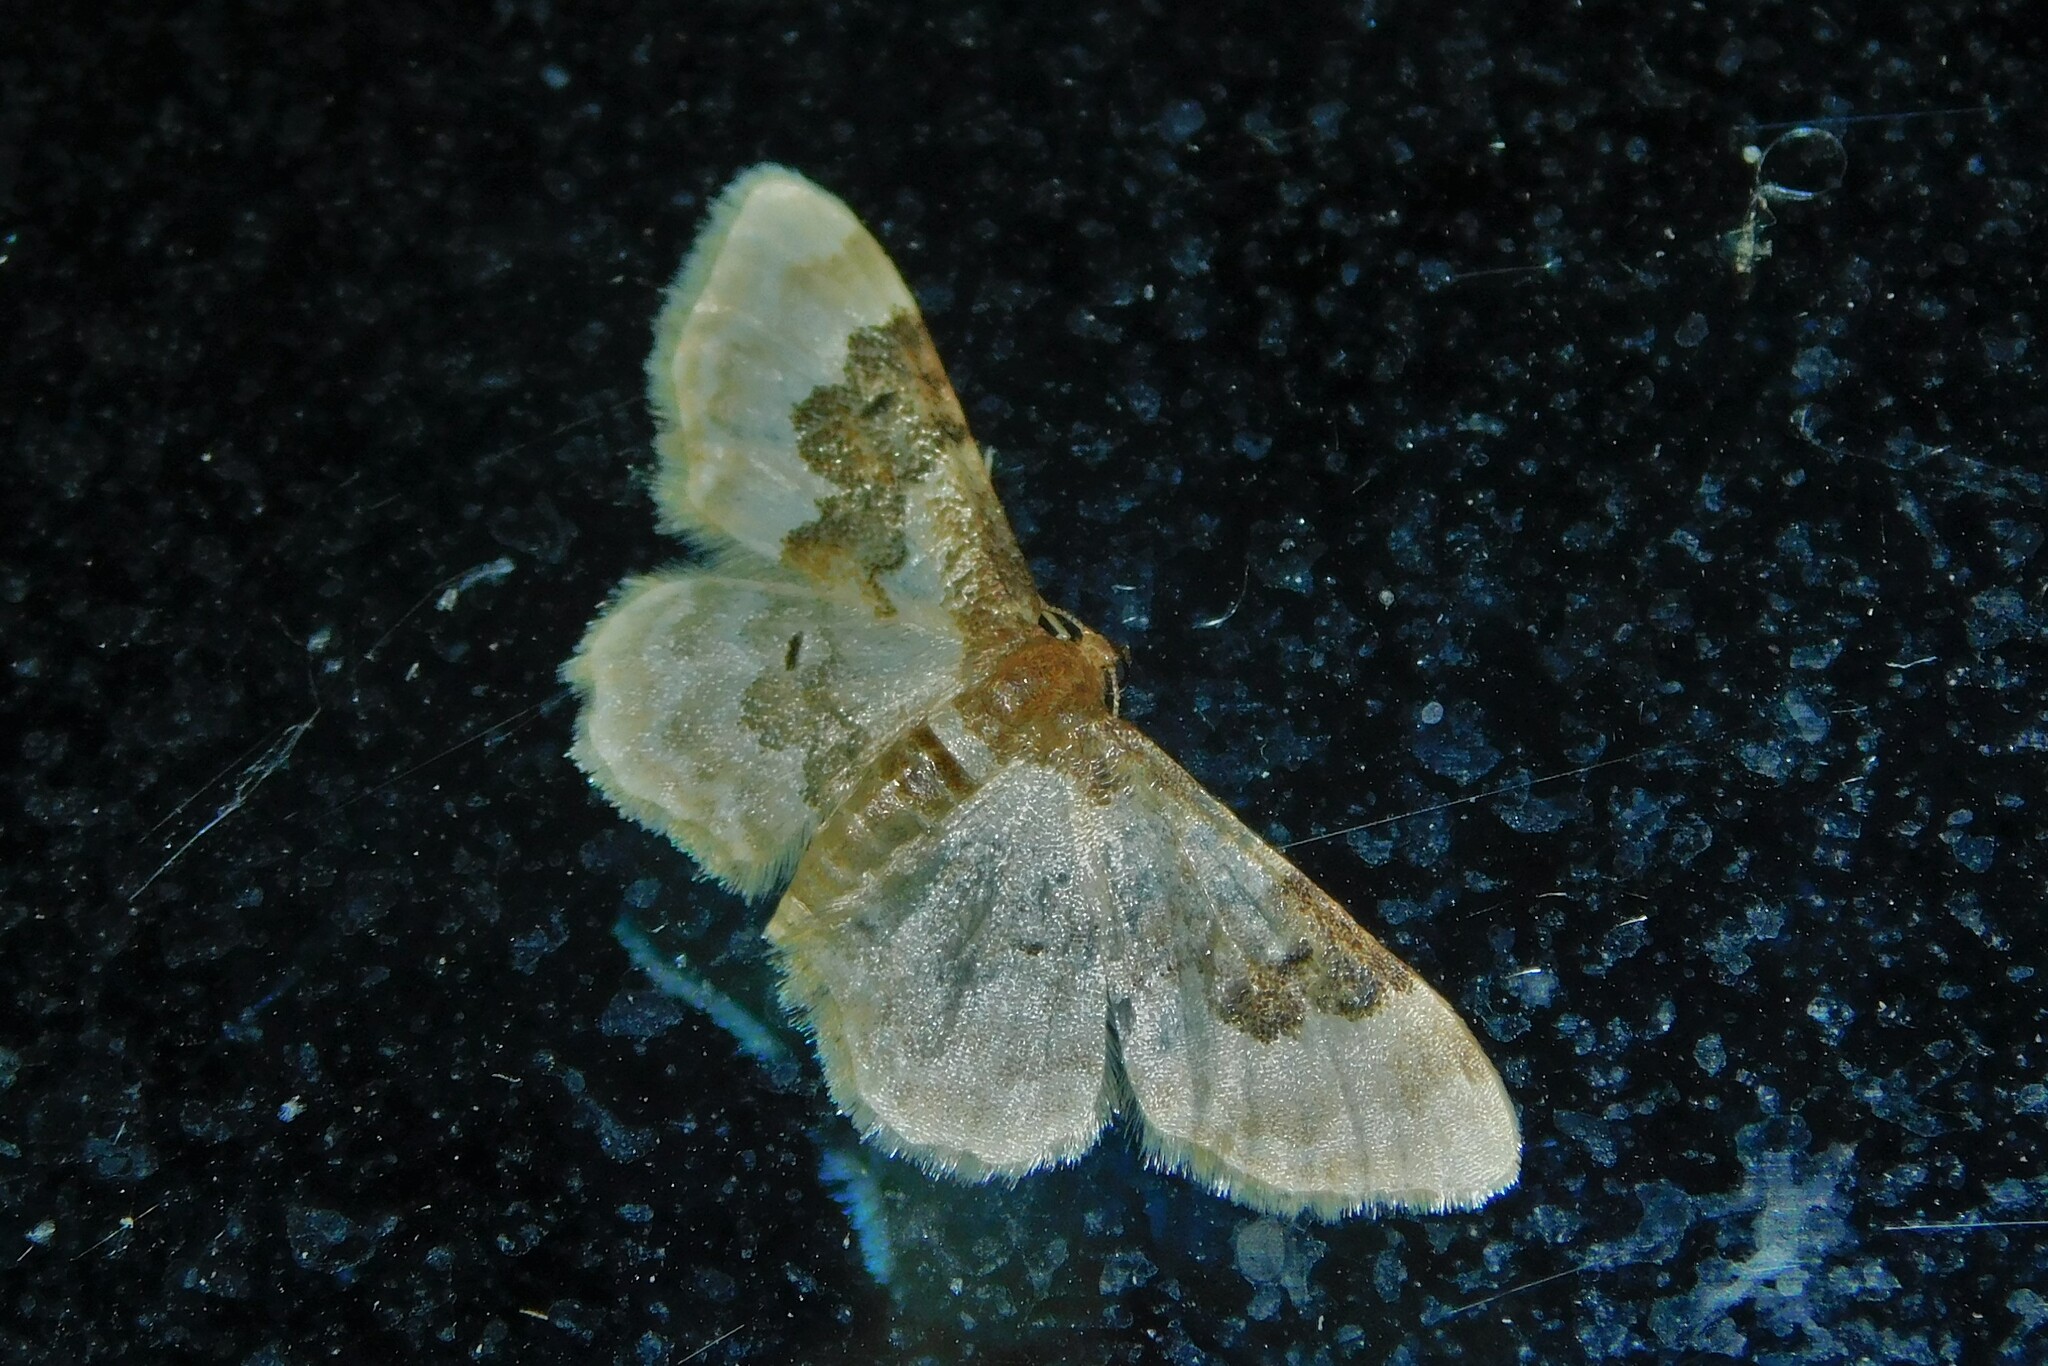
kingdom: Animalia
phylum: Arthropoda
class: Insecta
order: Lepidoptera
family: Geometridae
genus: Idaea
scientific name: Idaea rusticata
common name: Least carpet
